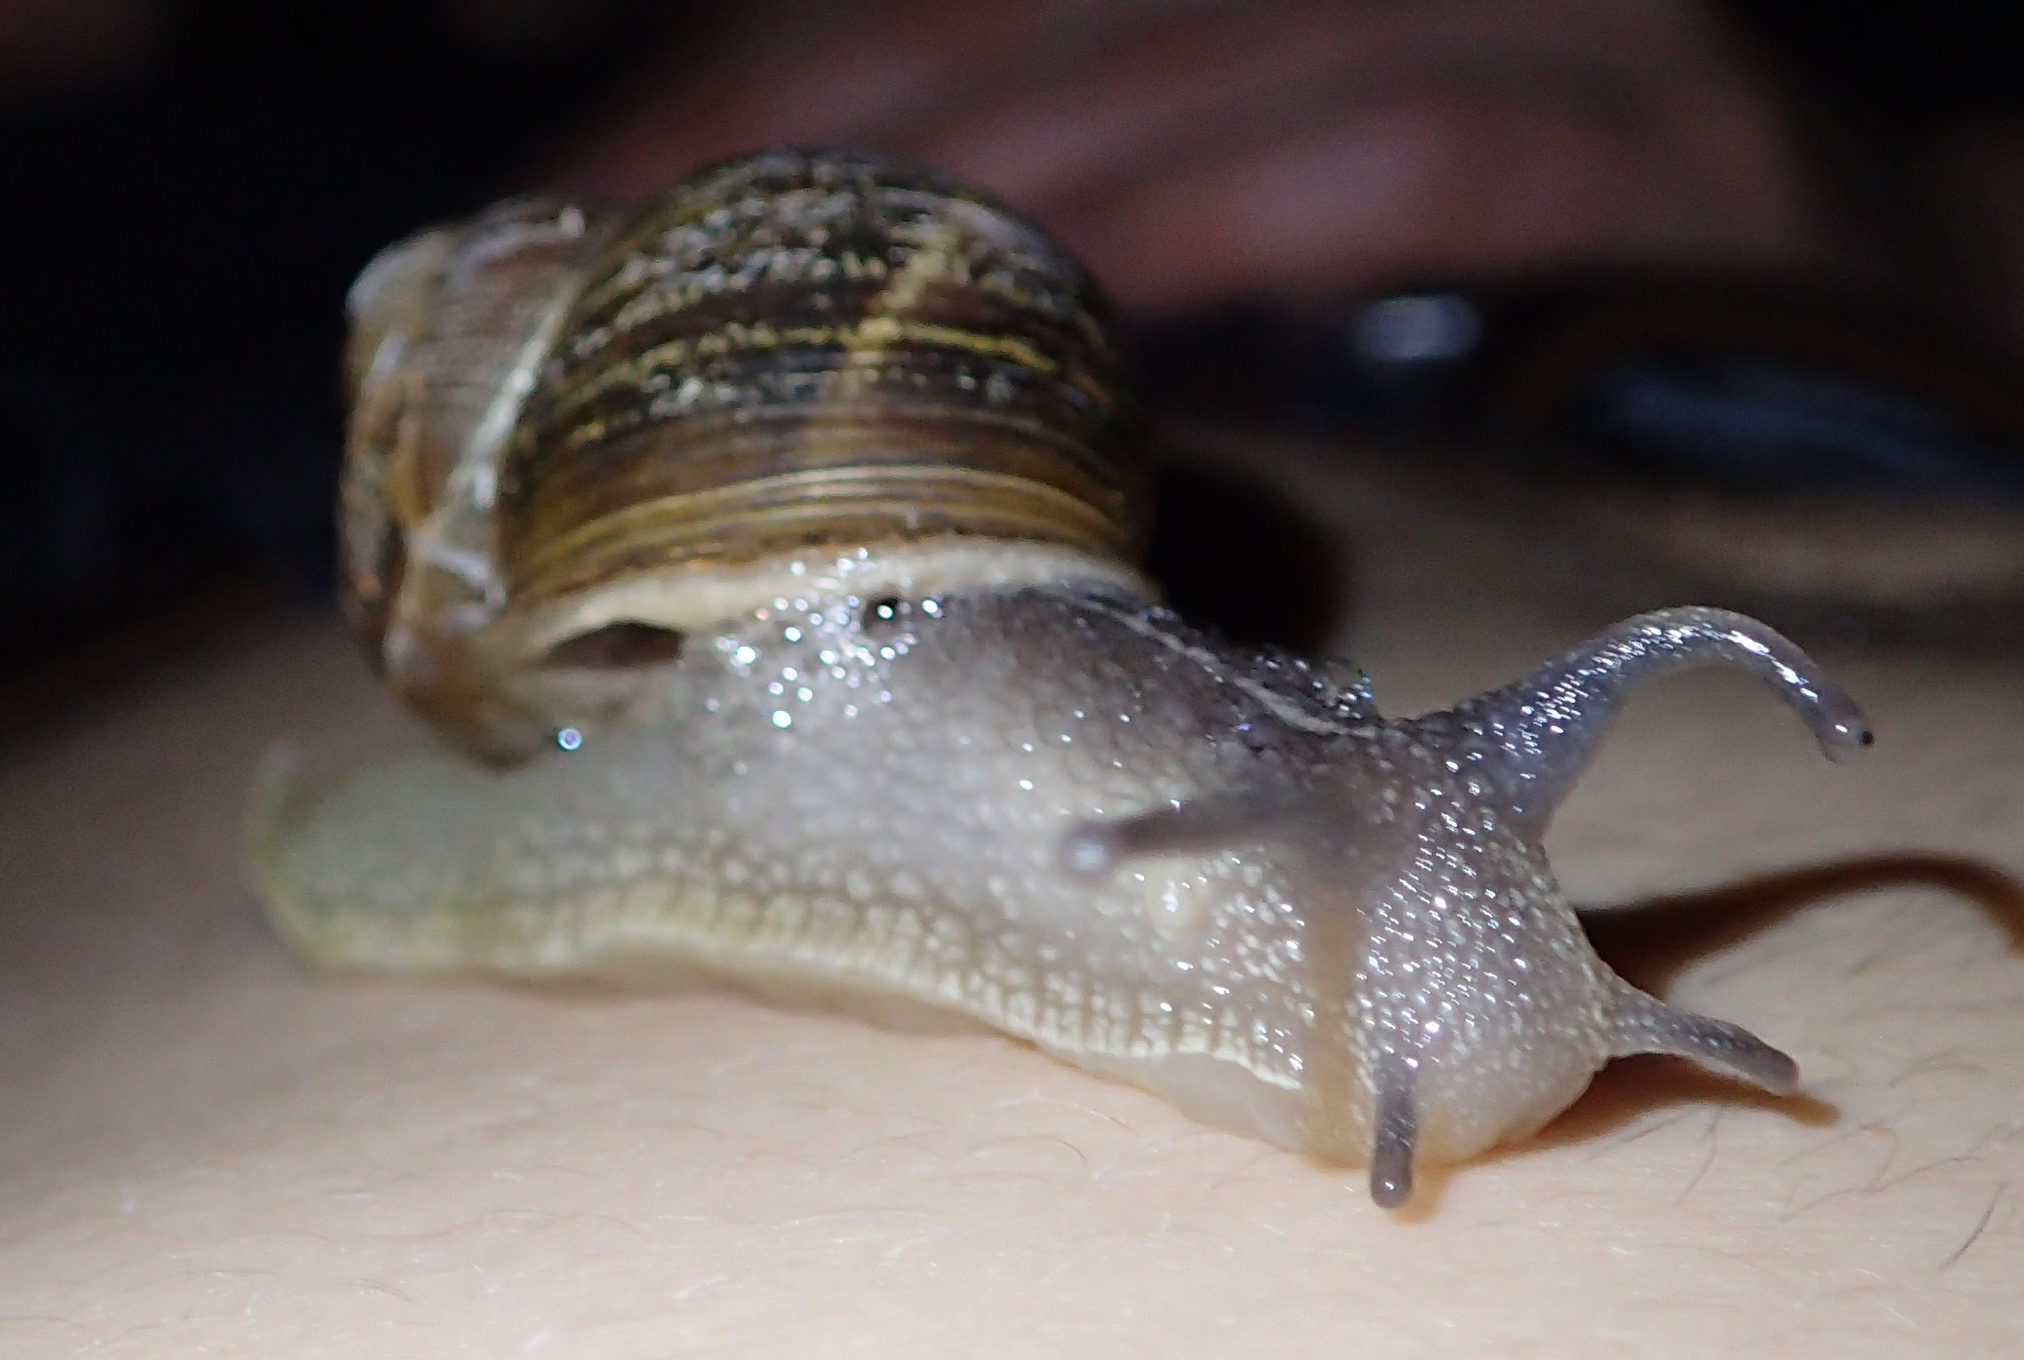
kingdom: Animalia
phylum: Mollusca
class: Gastropoda
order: Stylommatophora
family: Helicidae
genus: Cornu
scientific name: Cornu aspersum
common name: Brown garden snail
